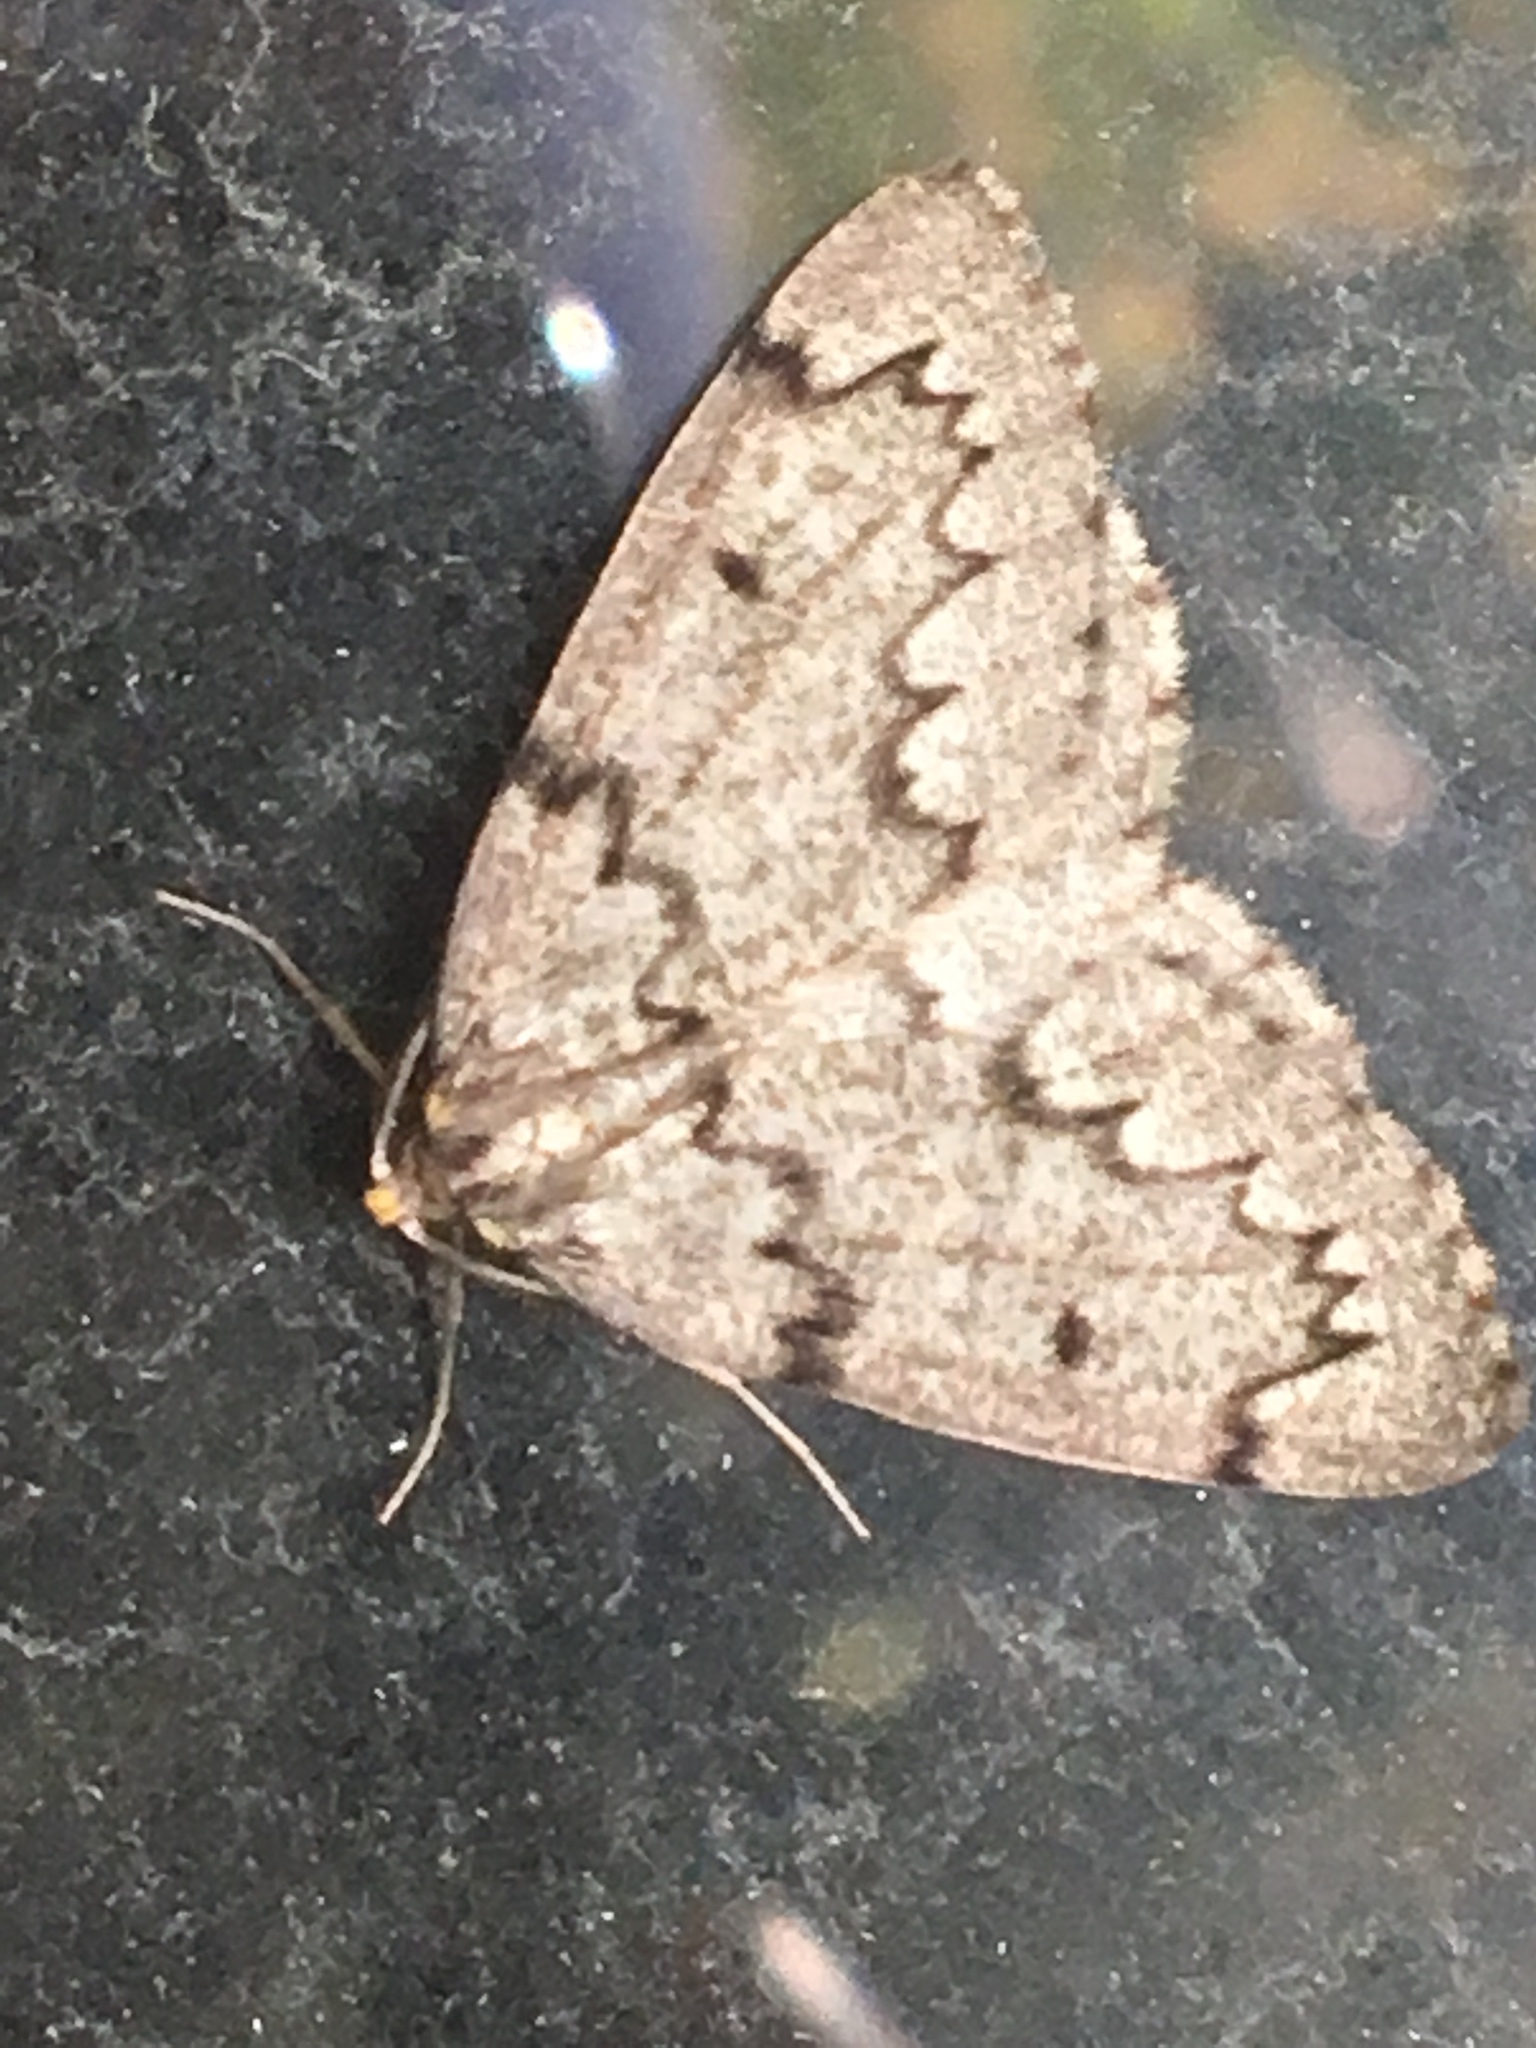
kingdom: Animalia
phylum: Arthropoda
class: Insecta
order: Lepidoptera
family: Geometridae
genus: Nepytia
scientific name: Nepytia canosaria
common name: False hemlock looper
